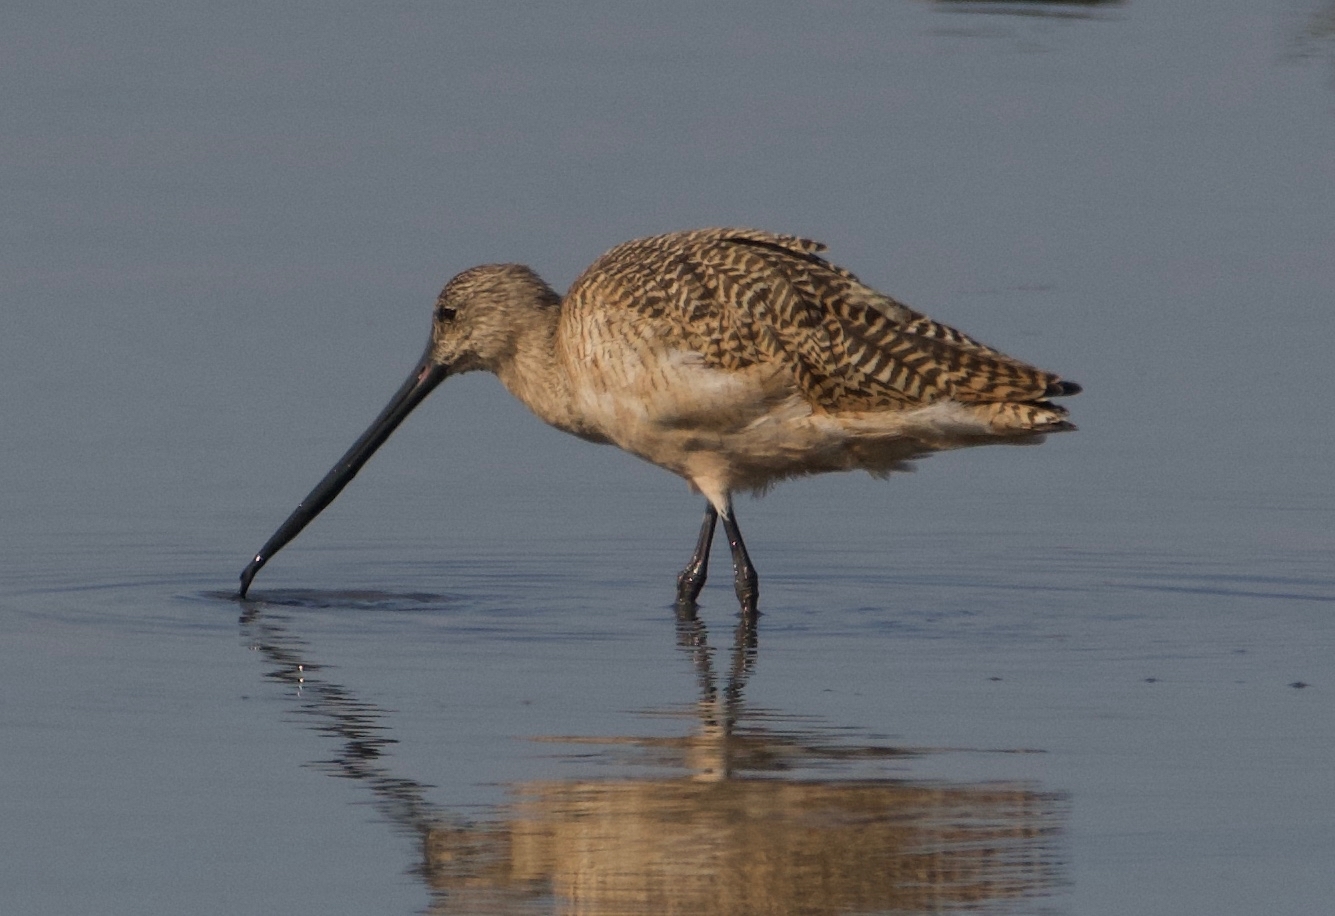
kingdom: Animalia
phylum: Chordata
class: Aves
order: Charadriiformes
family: Scolopacidae
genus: Limosa
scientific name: Limosa fedoa
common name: Marbled godwit
